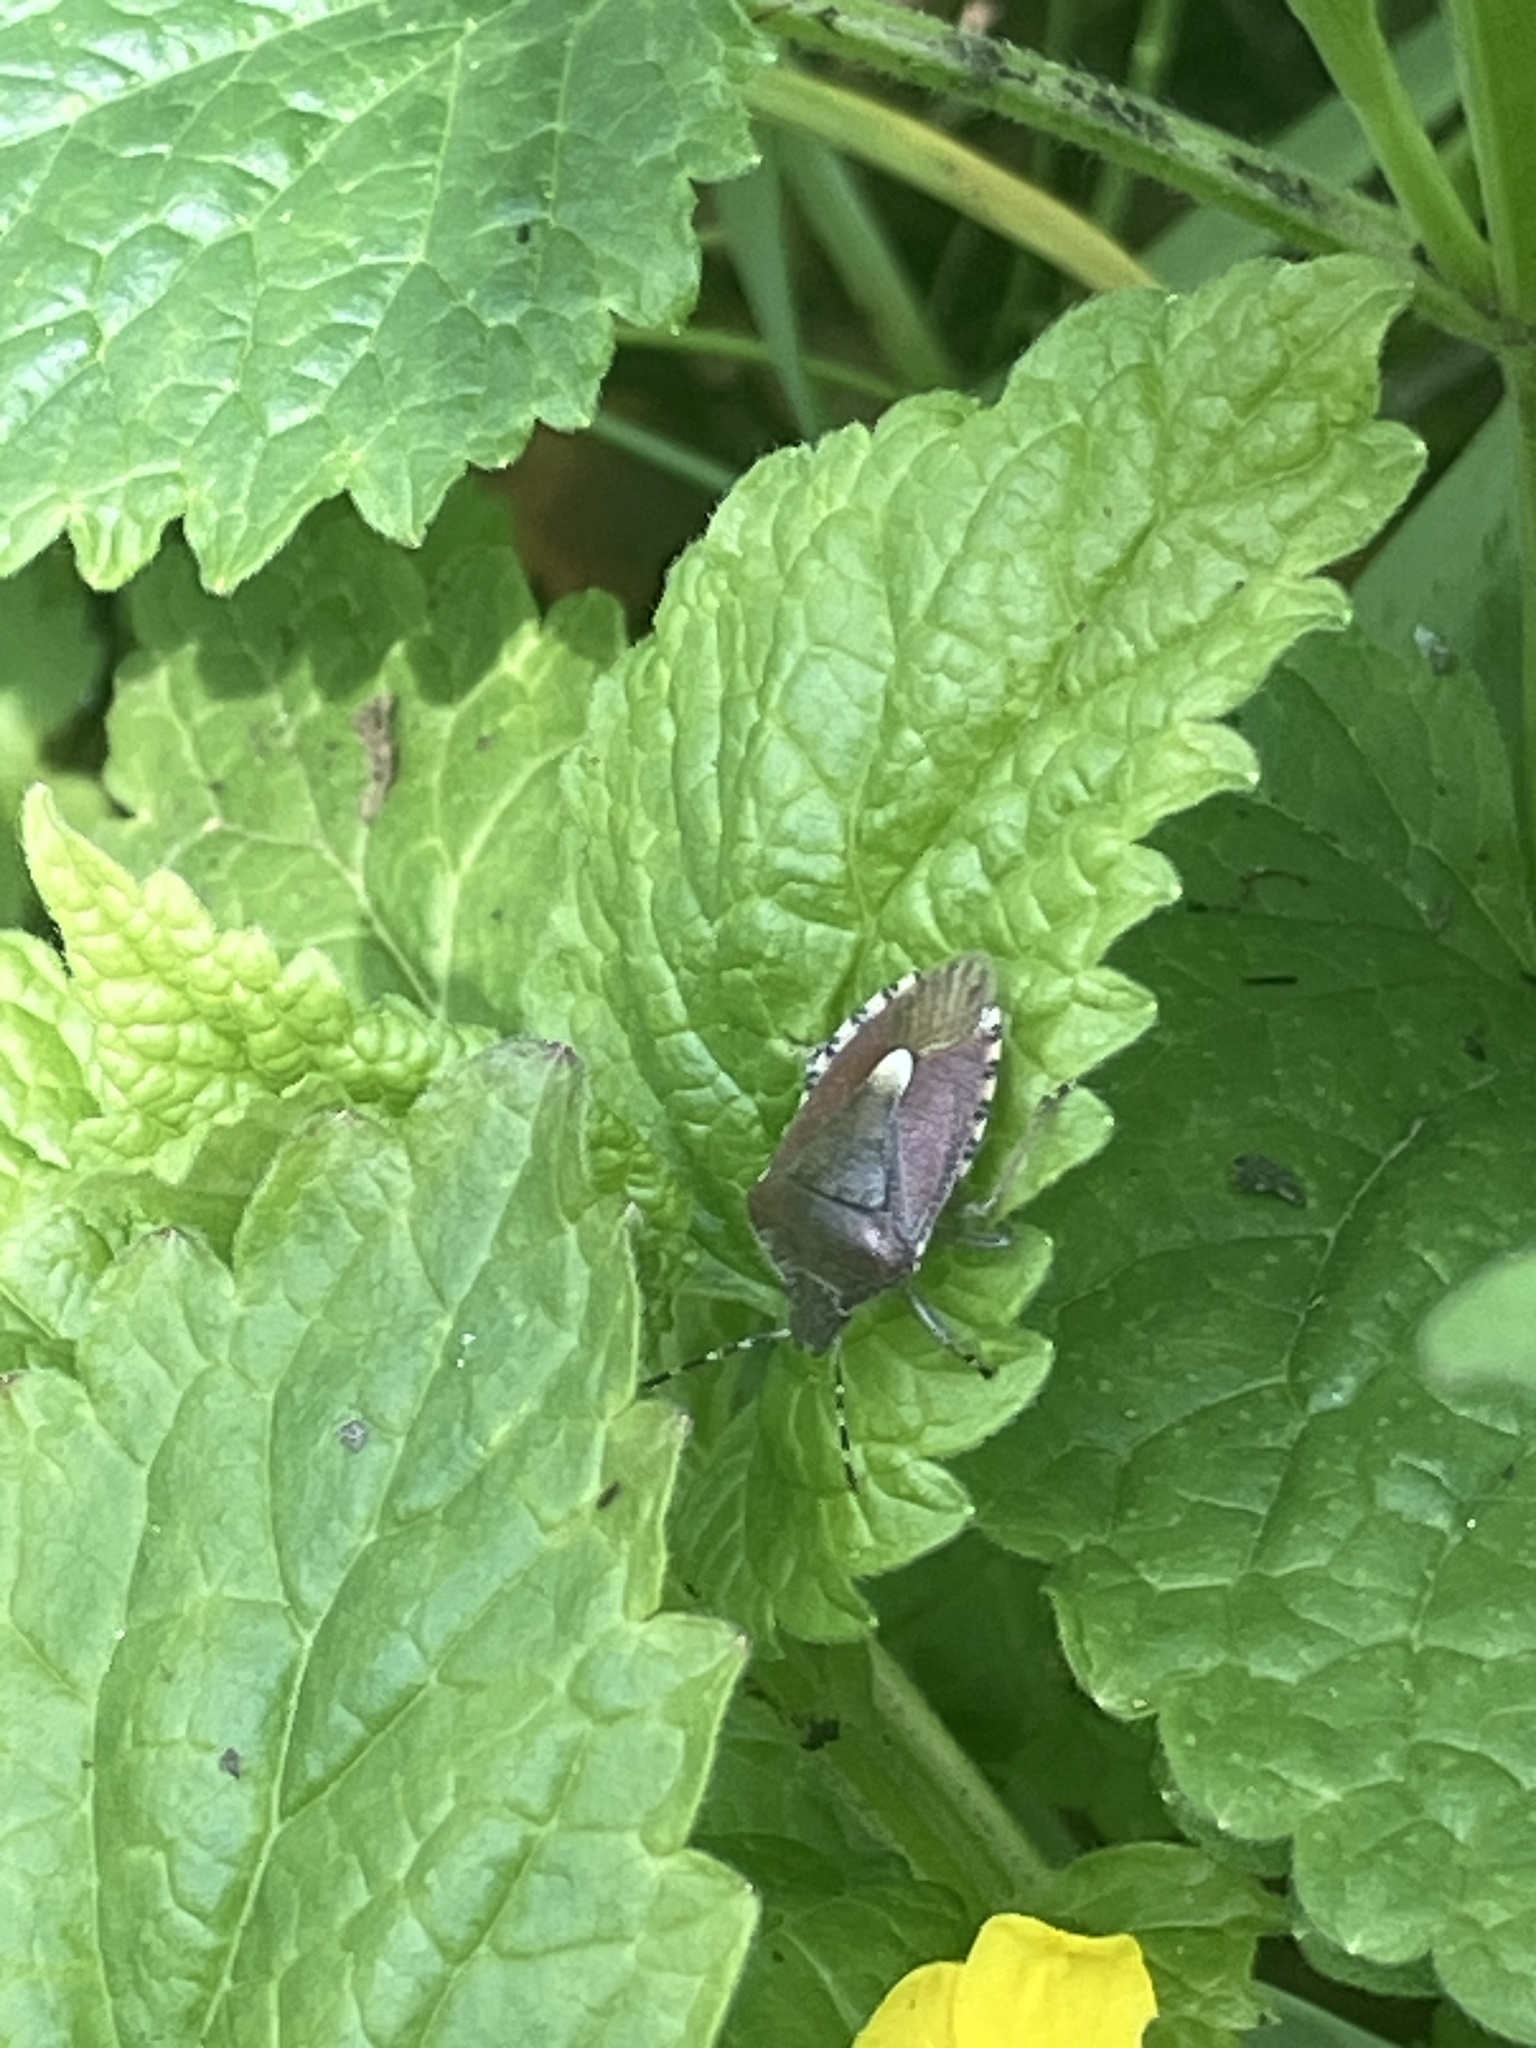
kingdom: Animalia
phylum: Arthropoda
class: Insecta
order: Hemiptera
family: Pentatomidae
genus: Dolycoris
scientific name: Dolycoris baccarum
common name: Sloe bug
